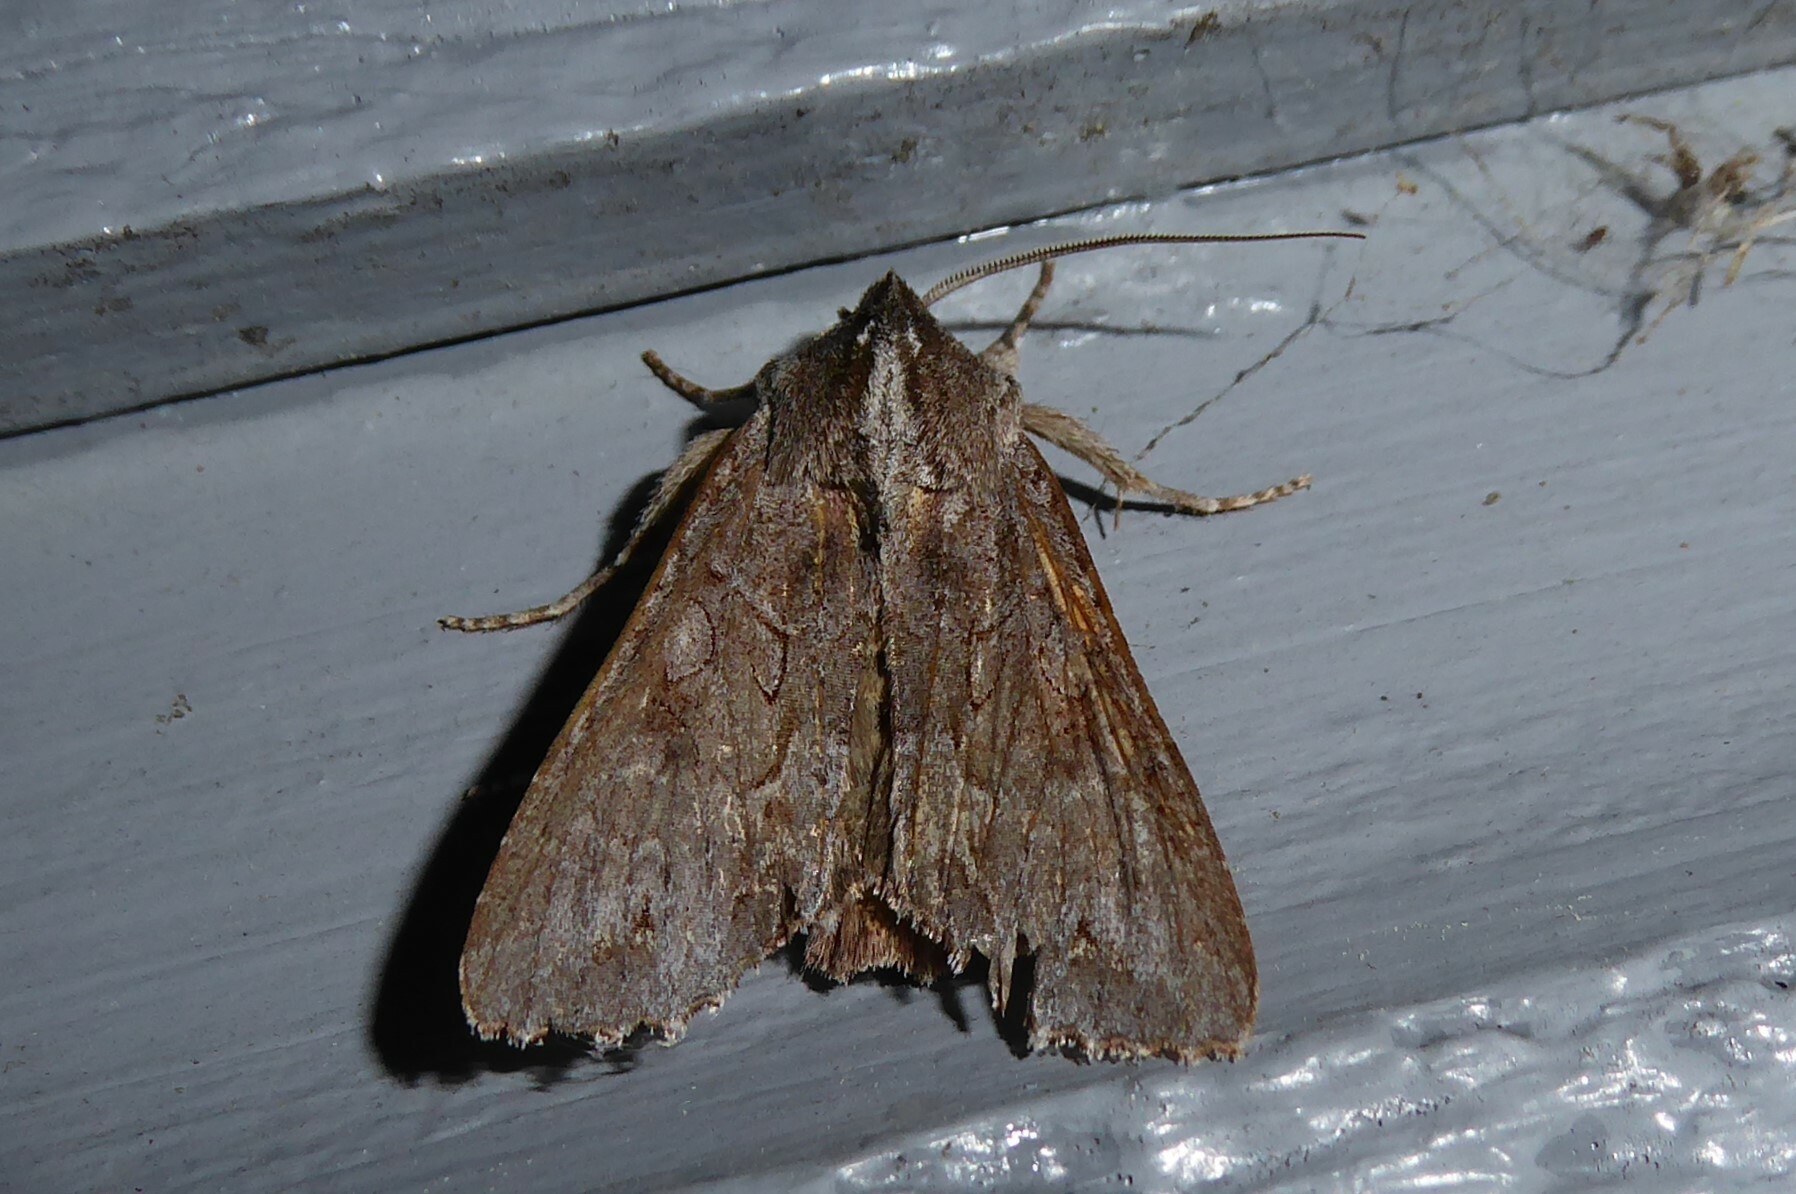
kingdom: Animalia
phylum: Arthropoda
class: Insecta
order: Lepidoptera
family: Noctuidae
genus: Ichneutica
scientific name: Ichneutica
